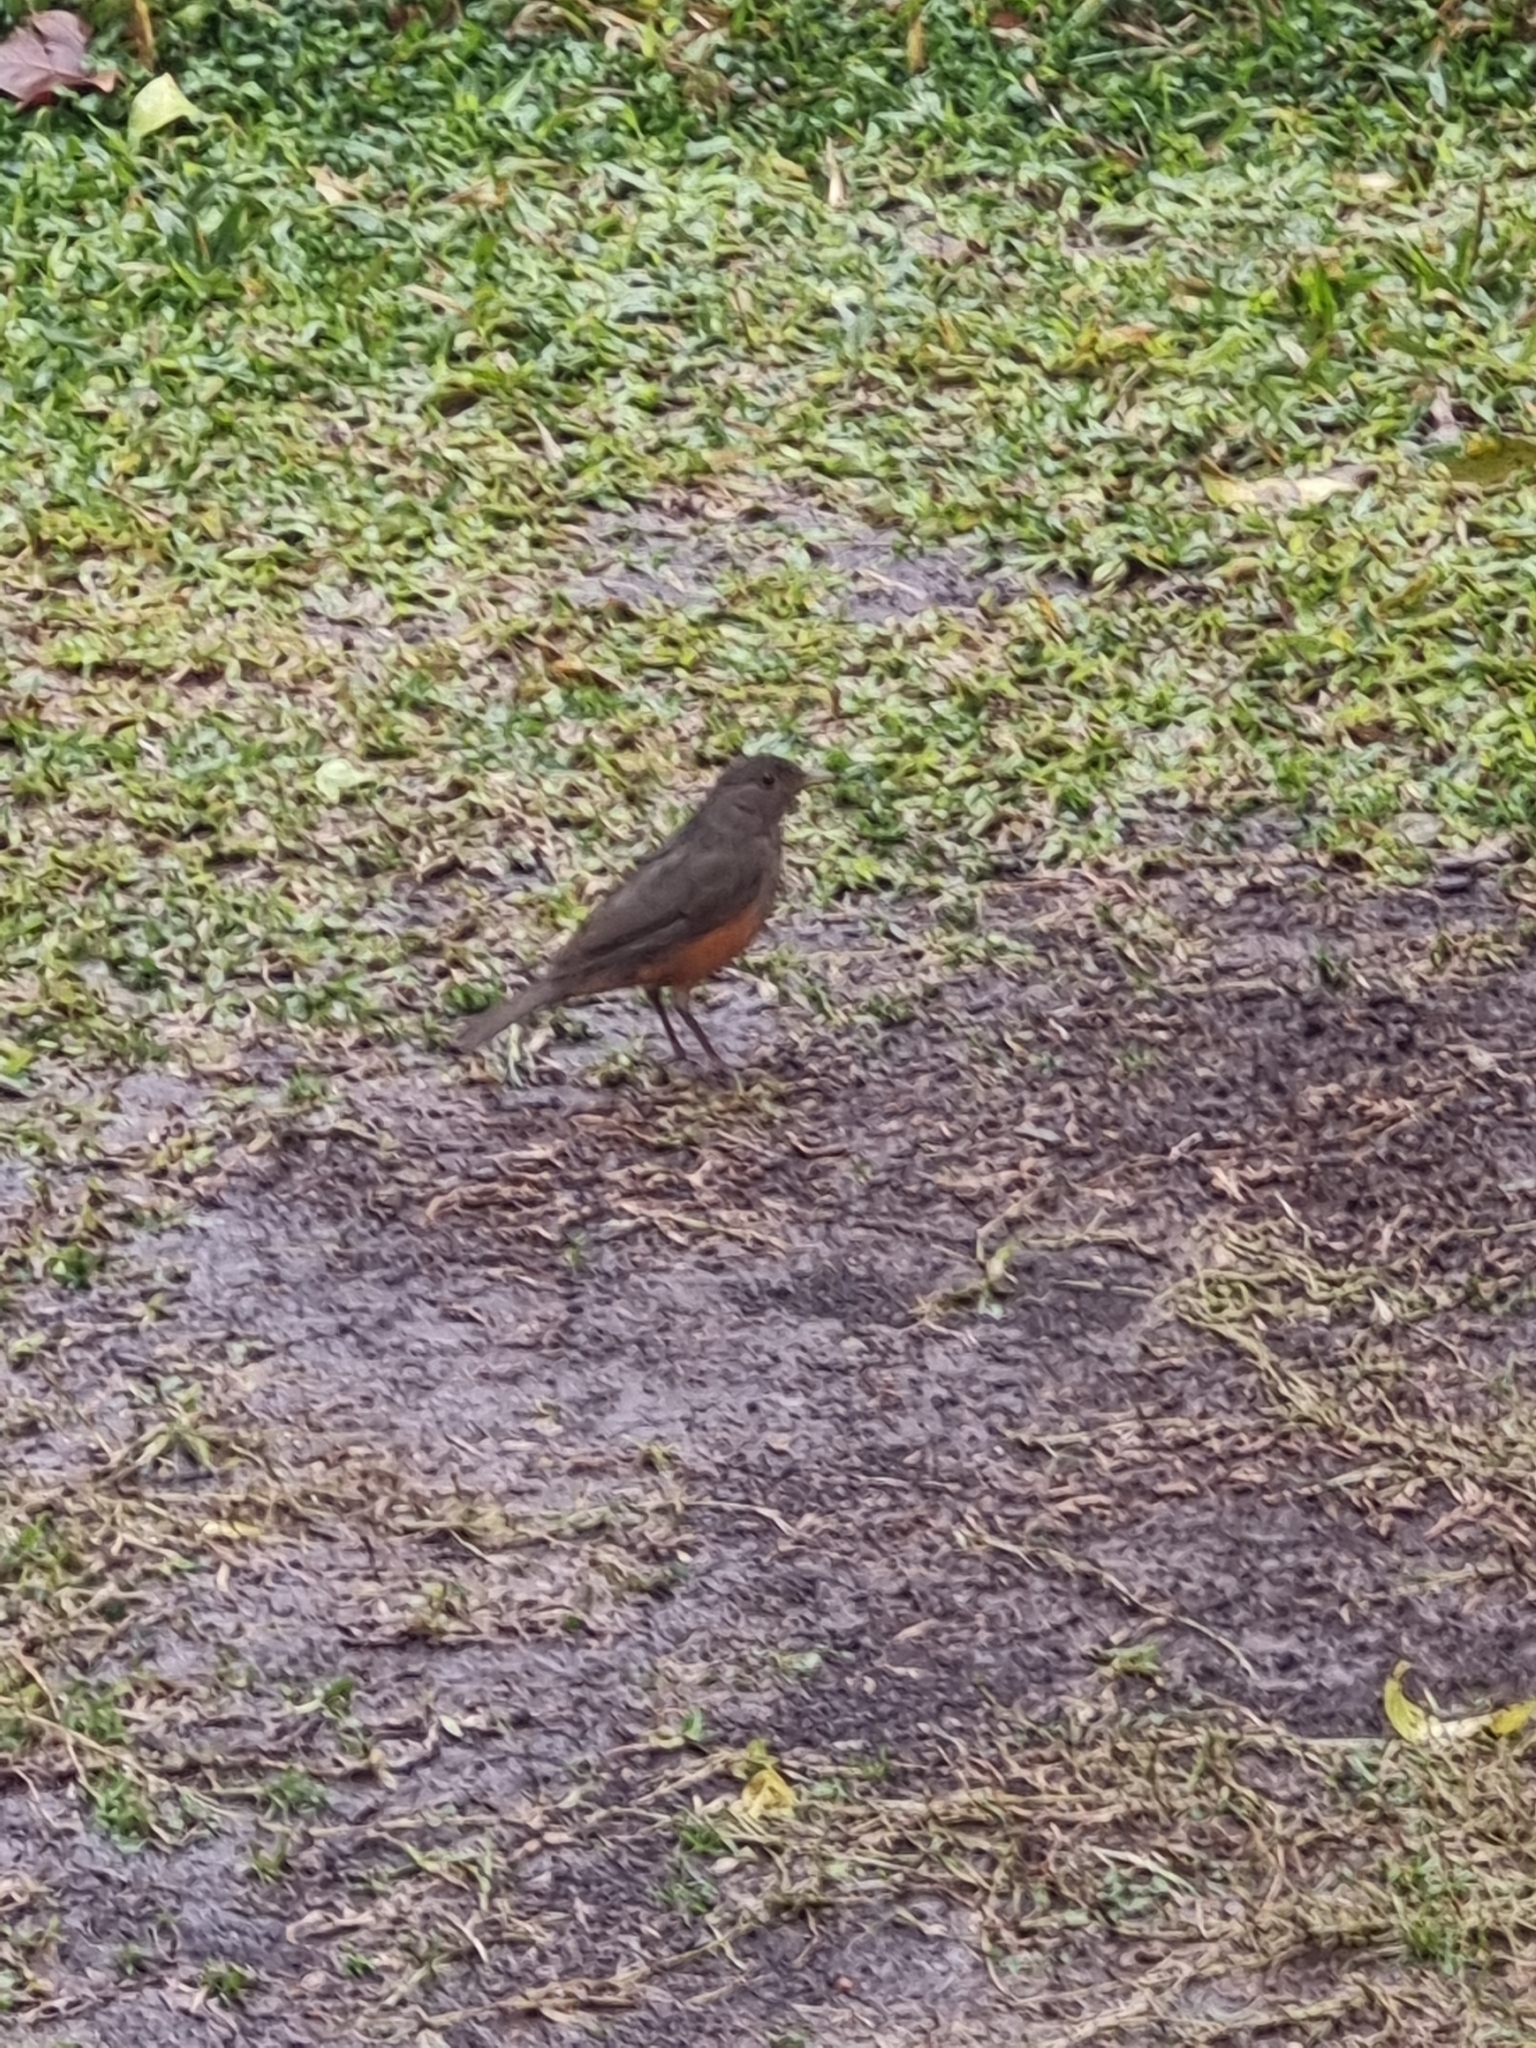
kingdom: Animalia
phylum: Chordata
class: Aves
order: Passeriformes
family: Turdidae
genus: Turdus
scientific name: Turdus rufiventris
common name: Rufous-bellied thrush
